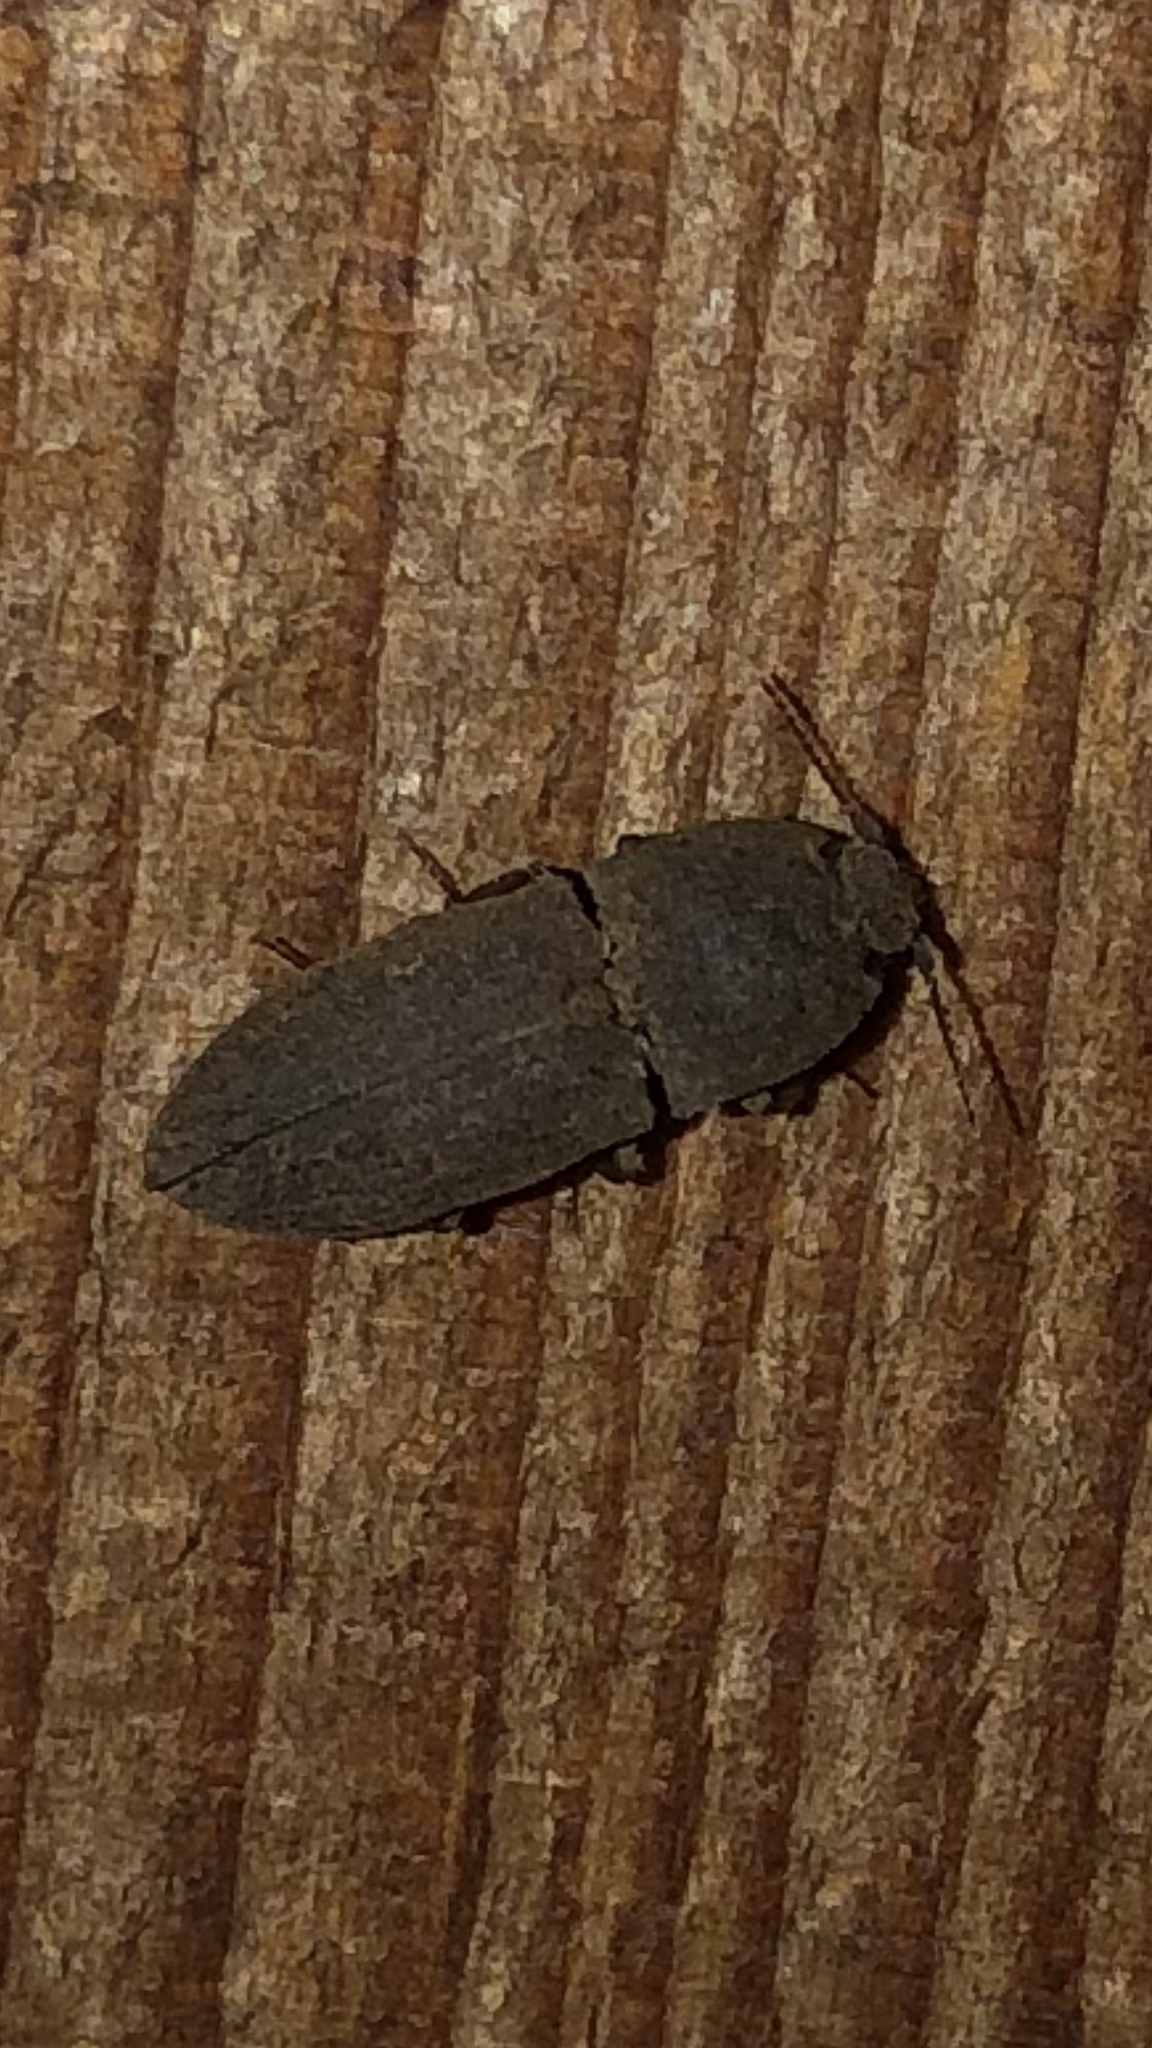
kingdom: Animalia
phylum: Arthropoda
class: Insecta
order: Coleoptera
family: Elateridae
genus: Agrypnus
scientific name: Agrypnus rectangularis
